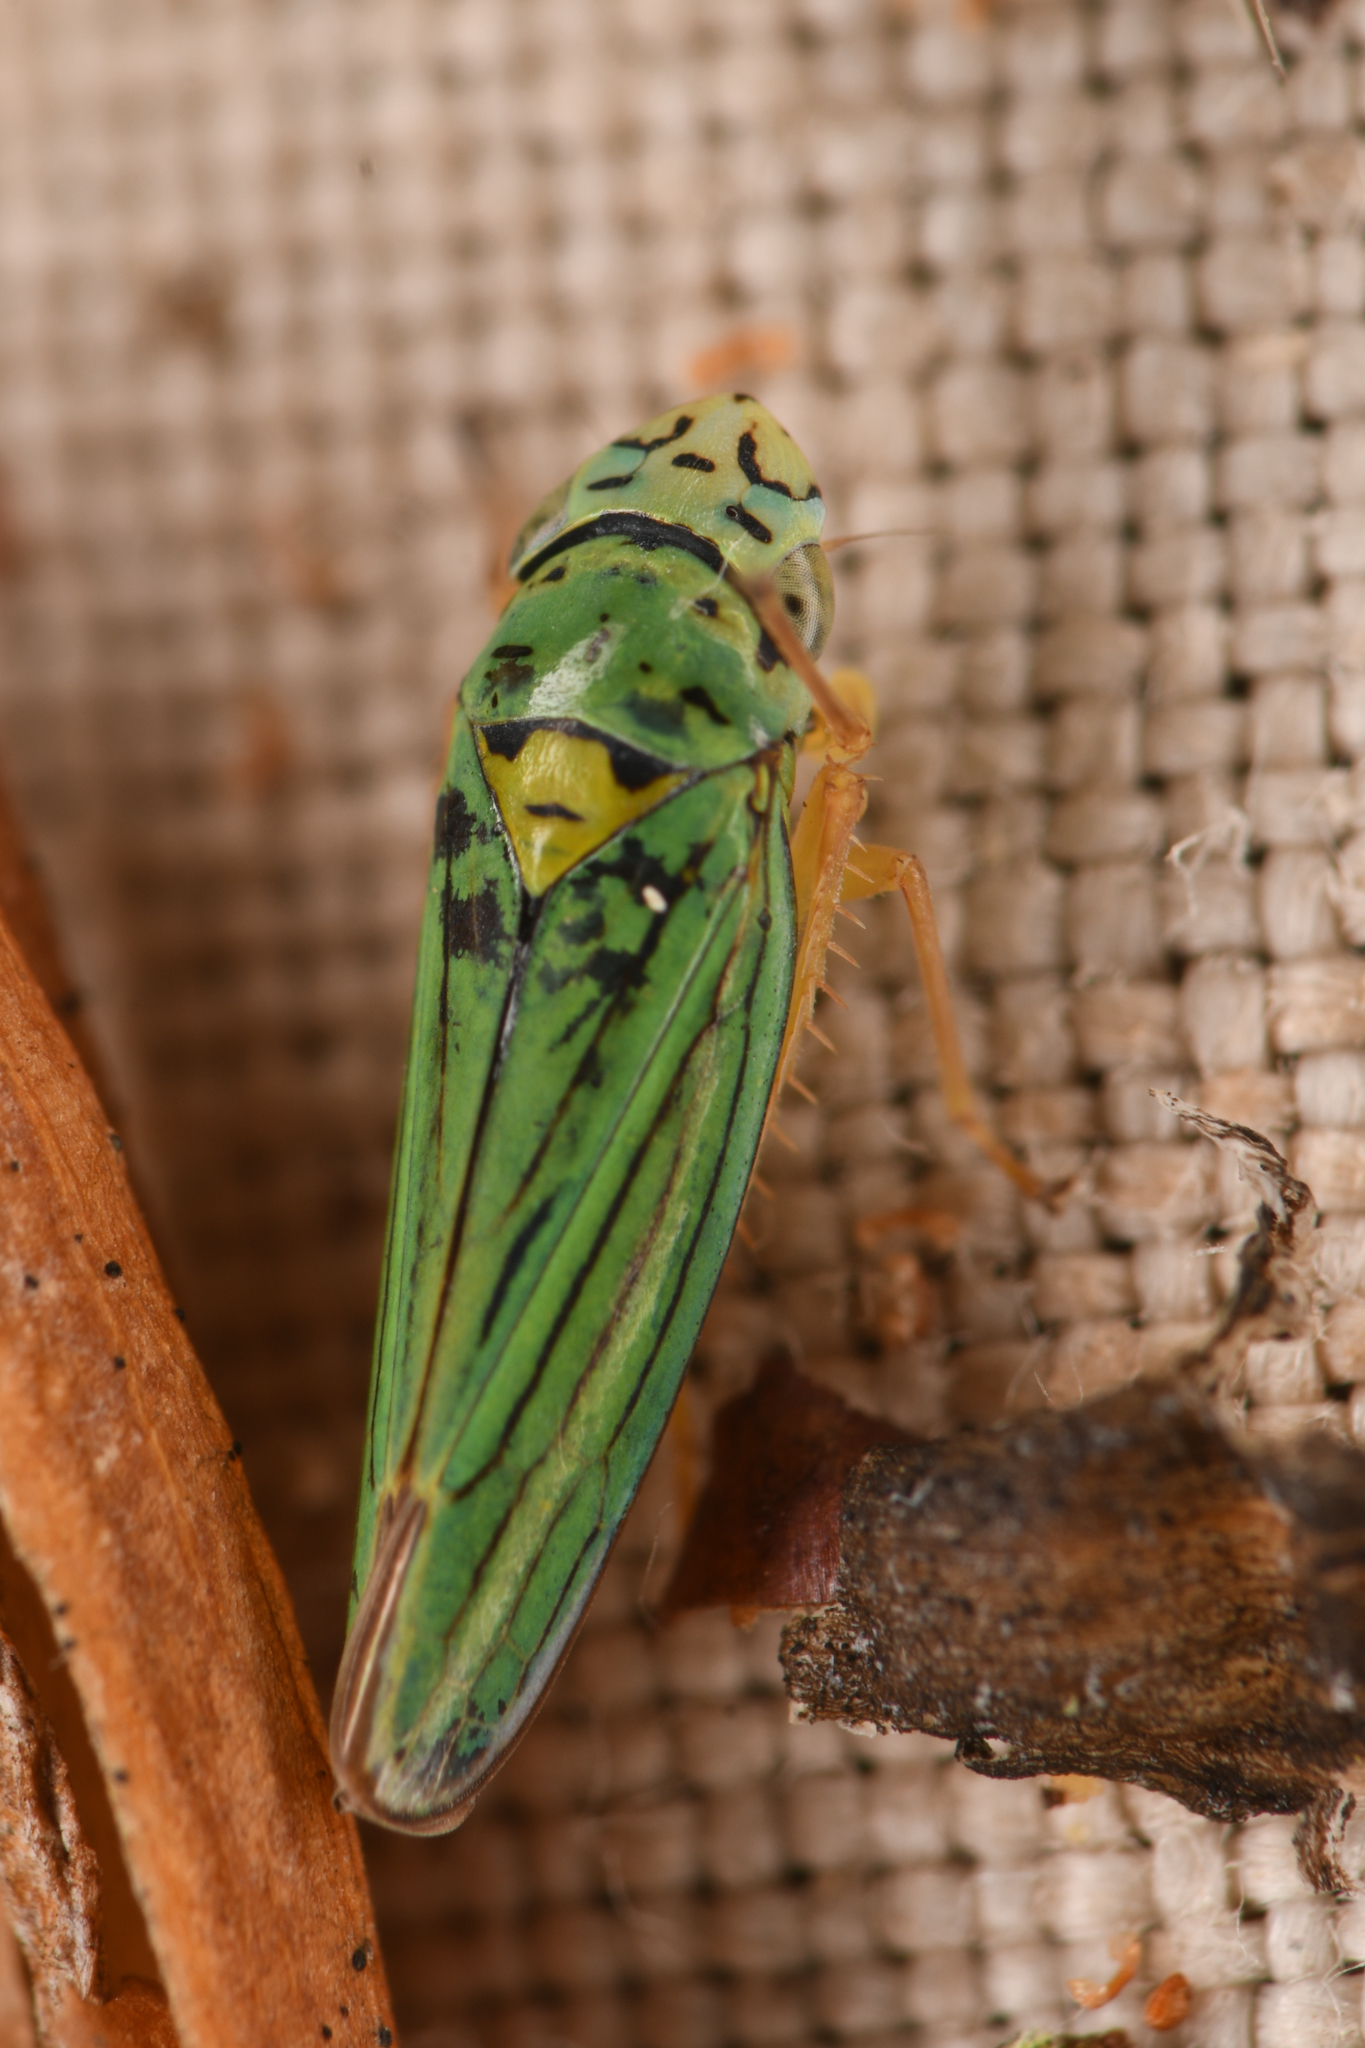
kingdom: Animalia
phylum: Arthropoda
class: Insecta
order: Hemiptera
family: Cicadellidae
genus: Graphocephala
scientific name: Graphocephala atropunctata
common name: Blue-green sharpshooter
